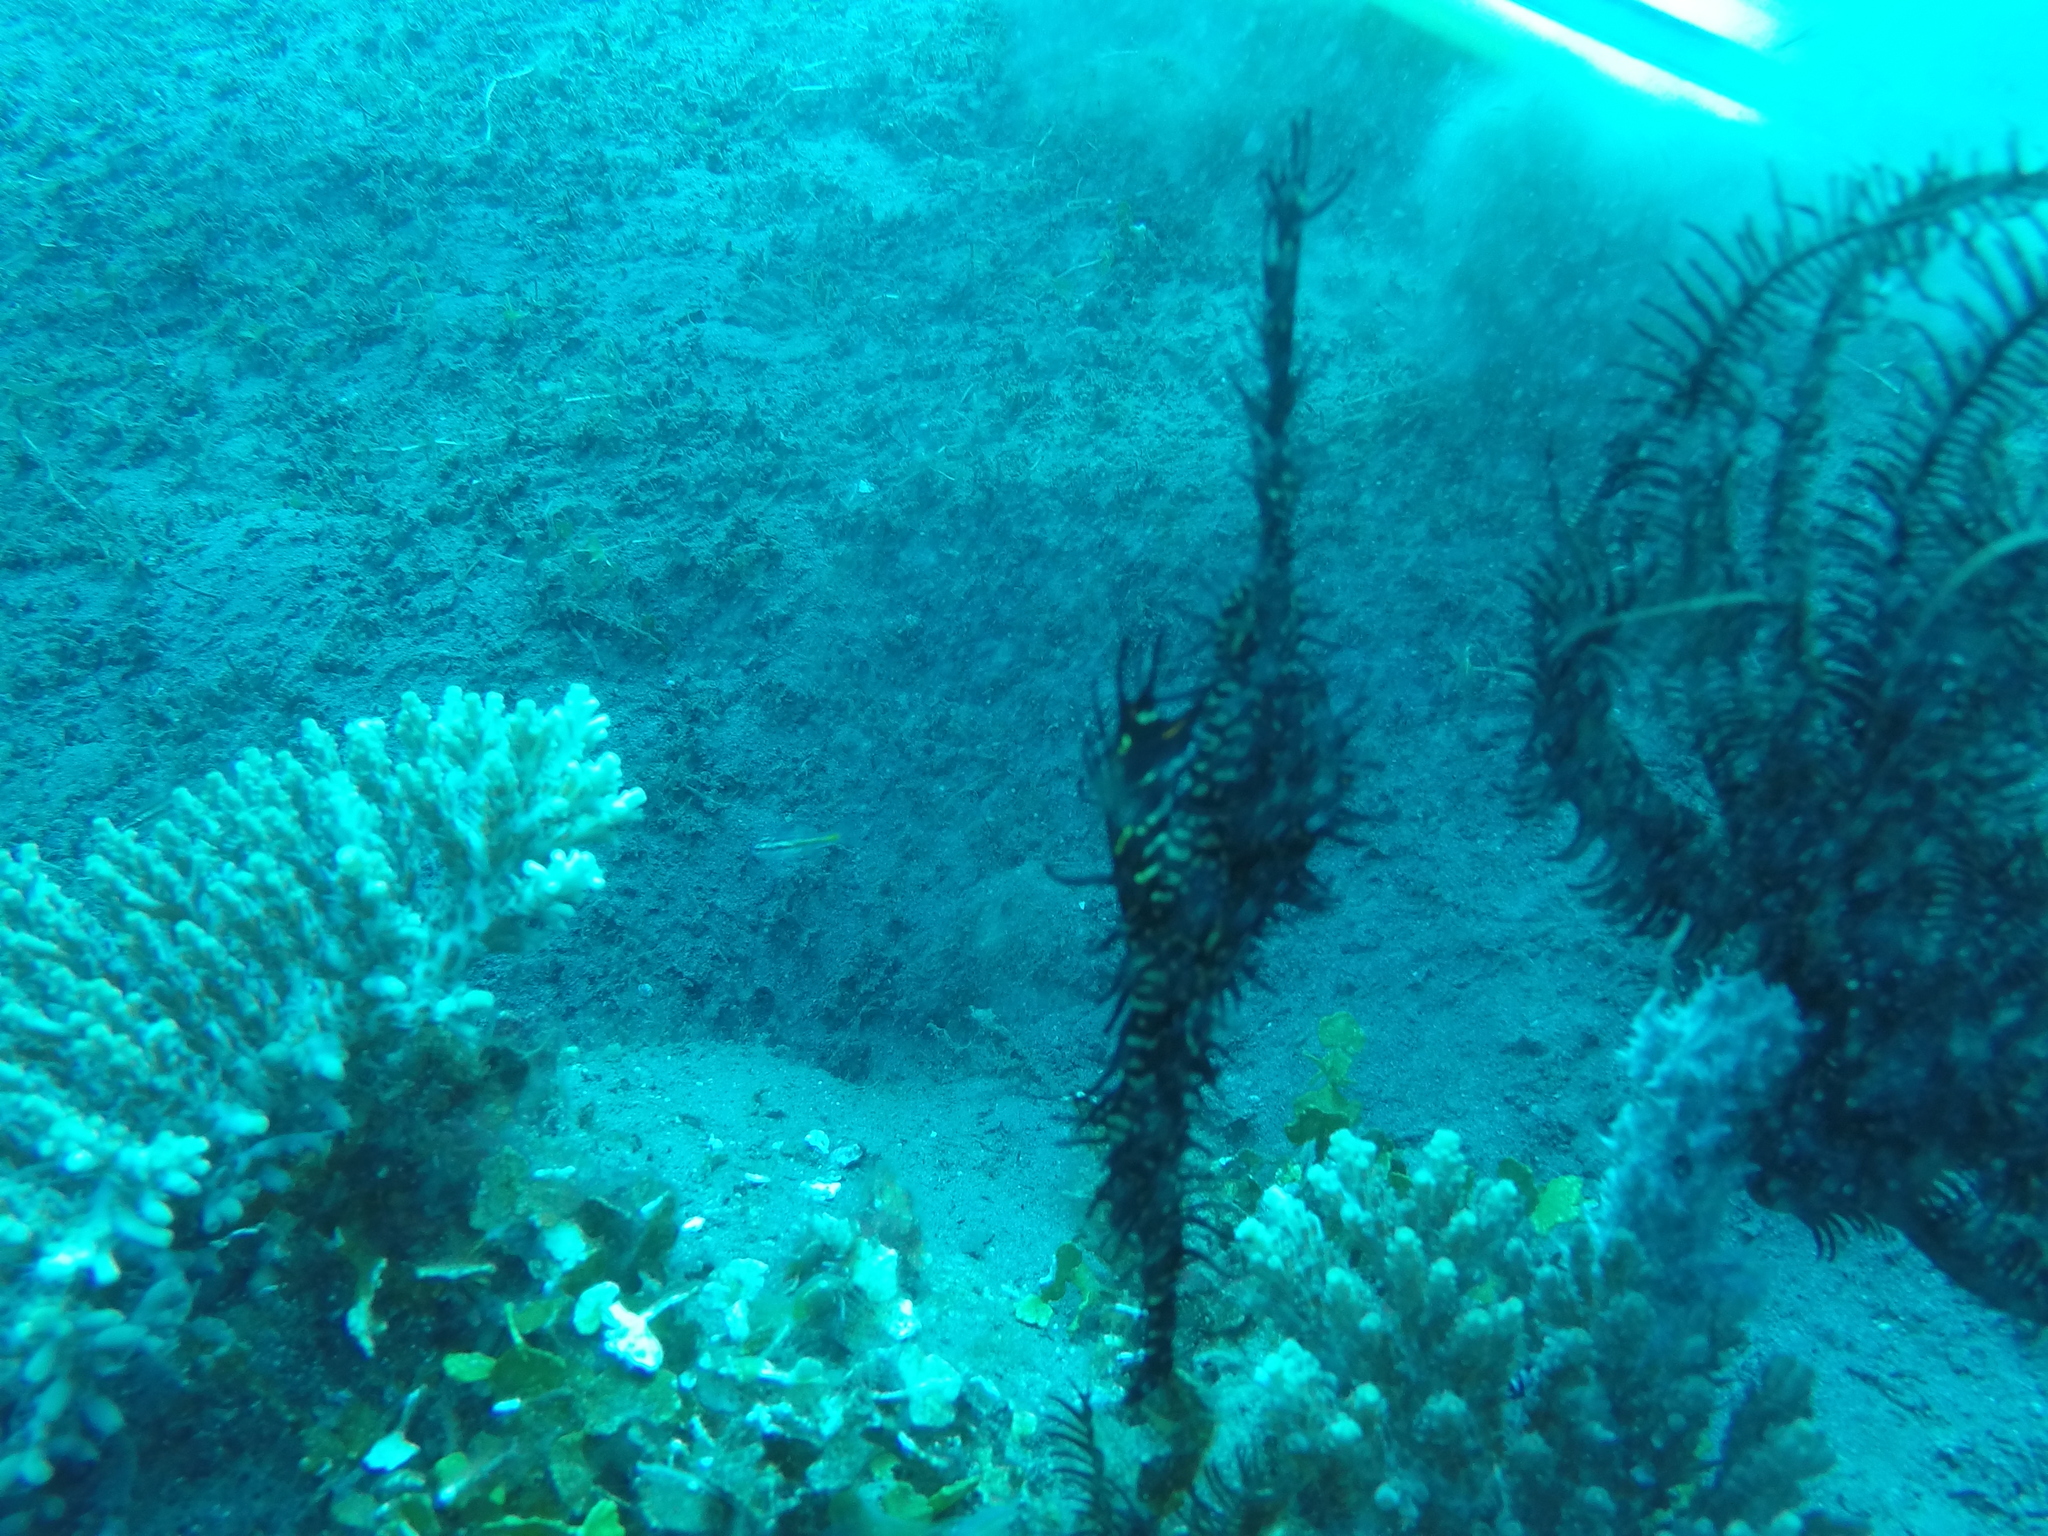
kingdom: Animalia
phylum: Chordata
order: Syngnathiformes
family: Solenostomidae
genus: Solenostomus
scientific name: Solenostomus paradoxus
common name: Ghost pipefish
